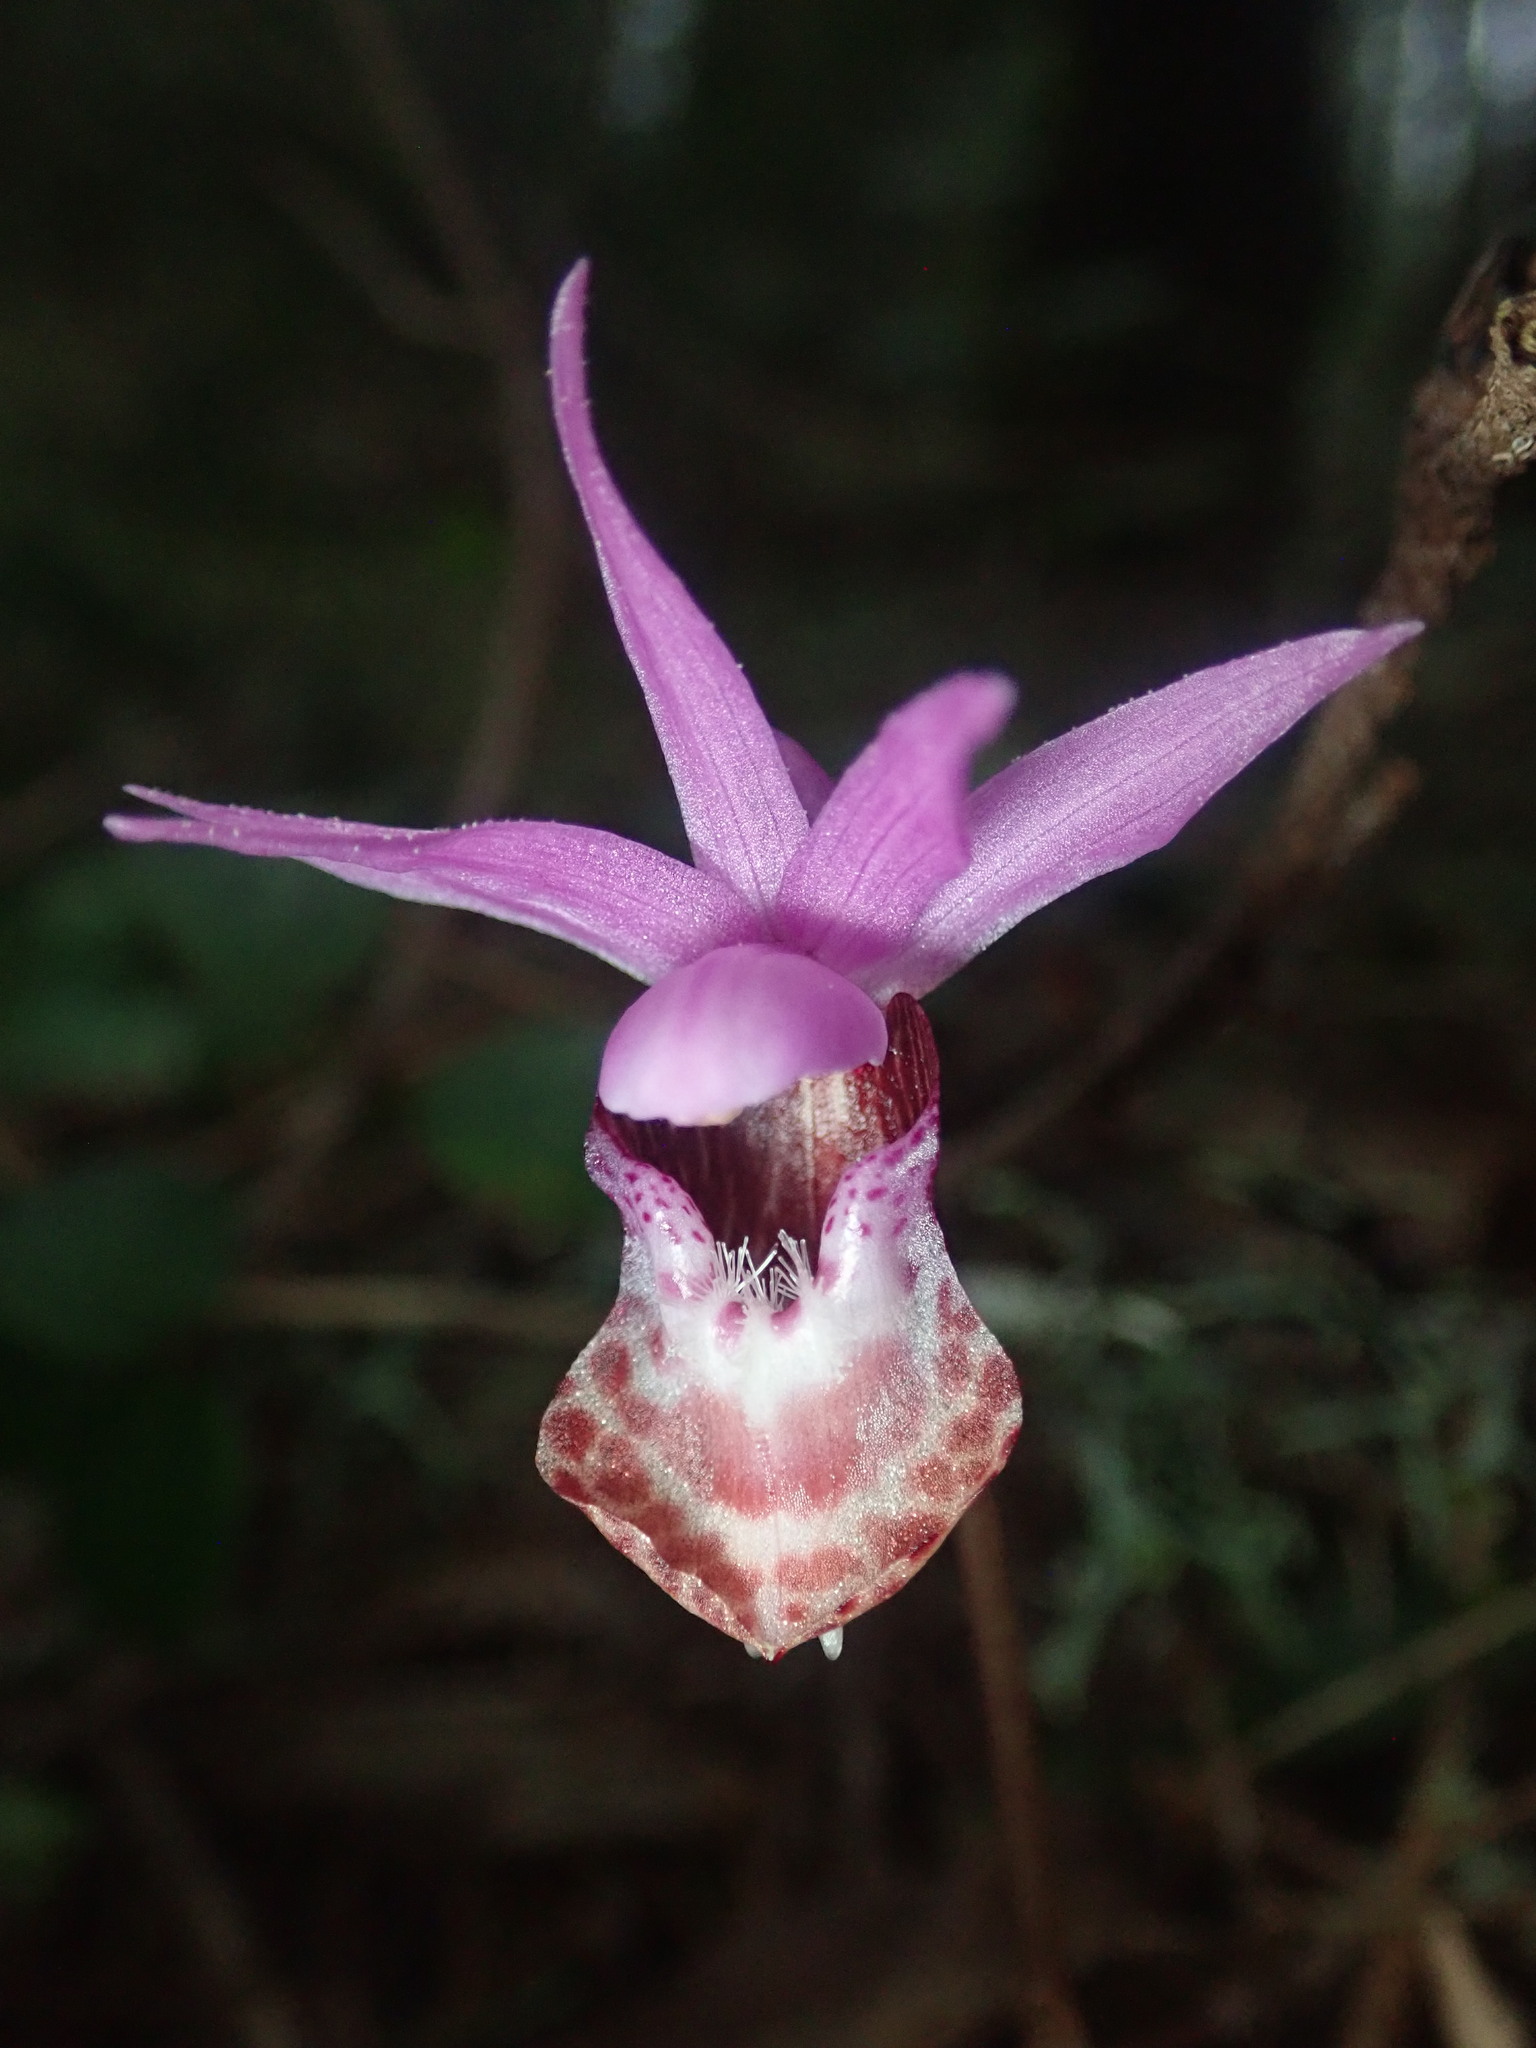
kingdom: Plantae
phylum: Tracheophyta
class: Liliopsida
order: Asparagales
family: Orchidaceae
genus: Calypso
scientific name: Calypso bulbosa
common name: Calypso
